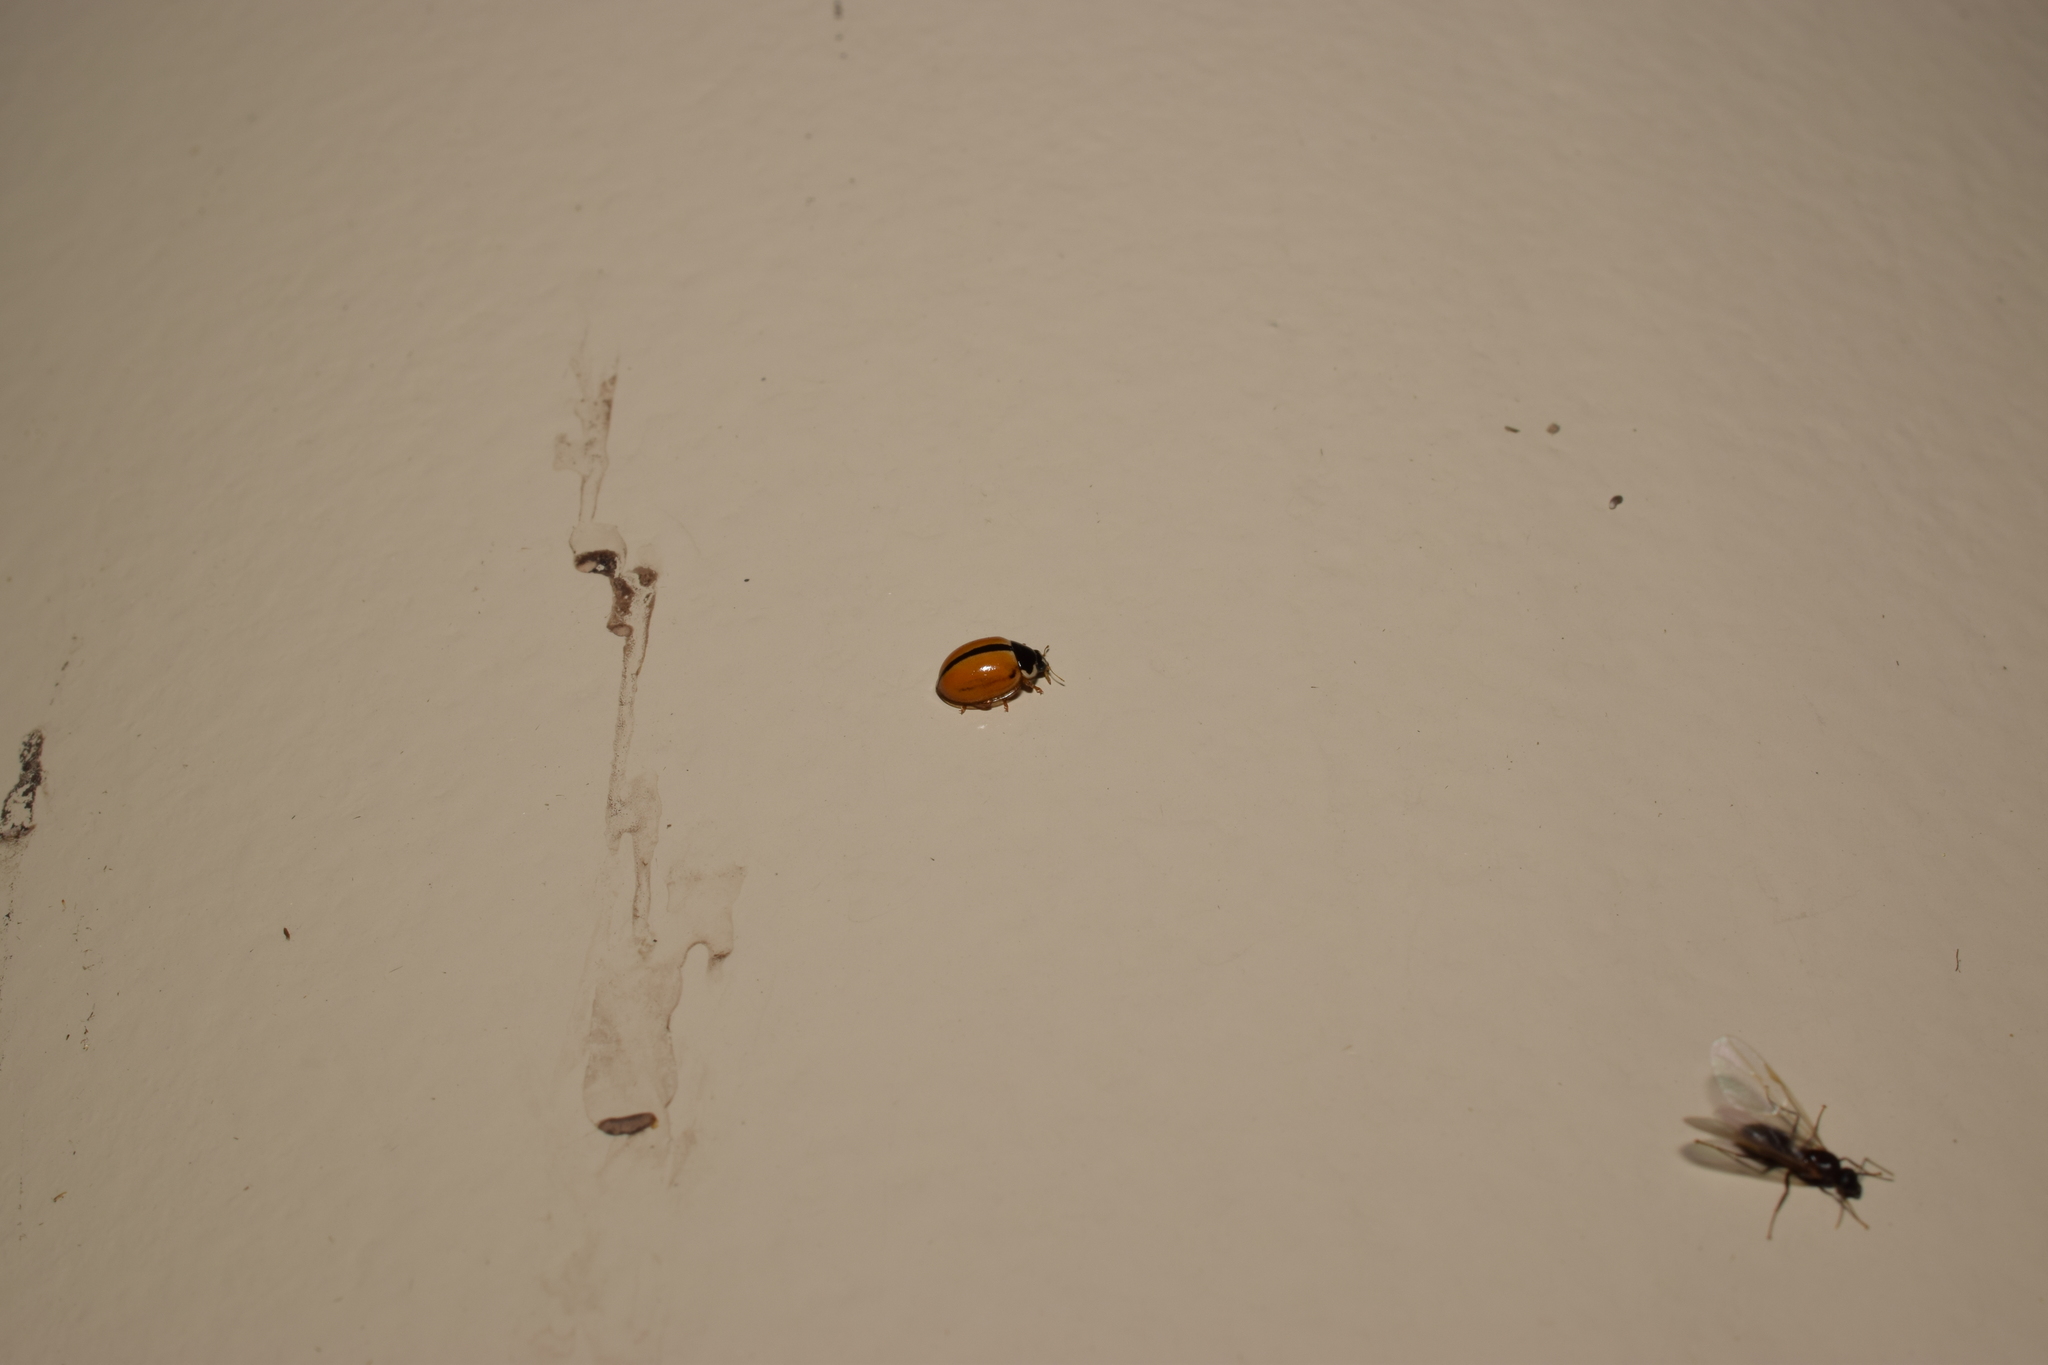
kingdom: Animalia
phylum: Arthropoda
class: Insecta
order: Coleoptera
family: Coccinellidae
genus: Propylea
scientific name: Propylea japonica
